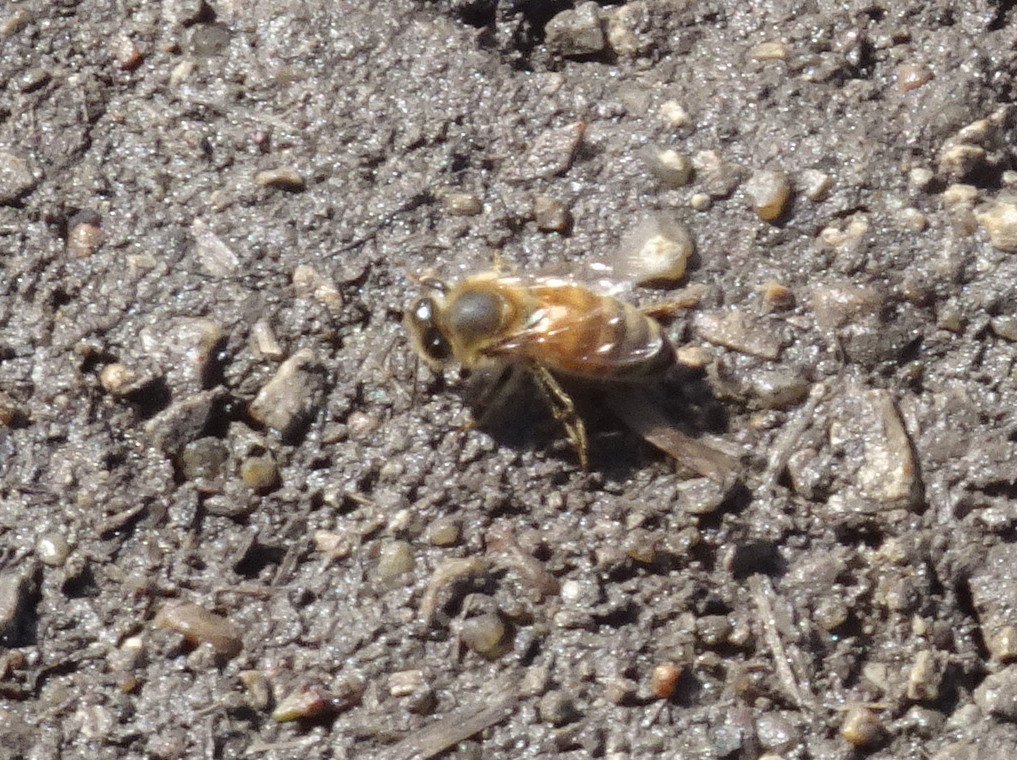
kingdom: Animalia
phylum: Arthropoda
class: Insecta
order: Hymenoptera
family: Apidae
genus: Apis
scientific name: Apis mellifera
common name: Honey bee
